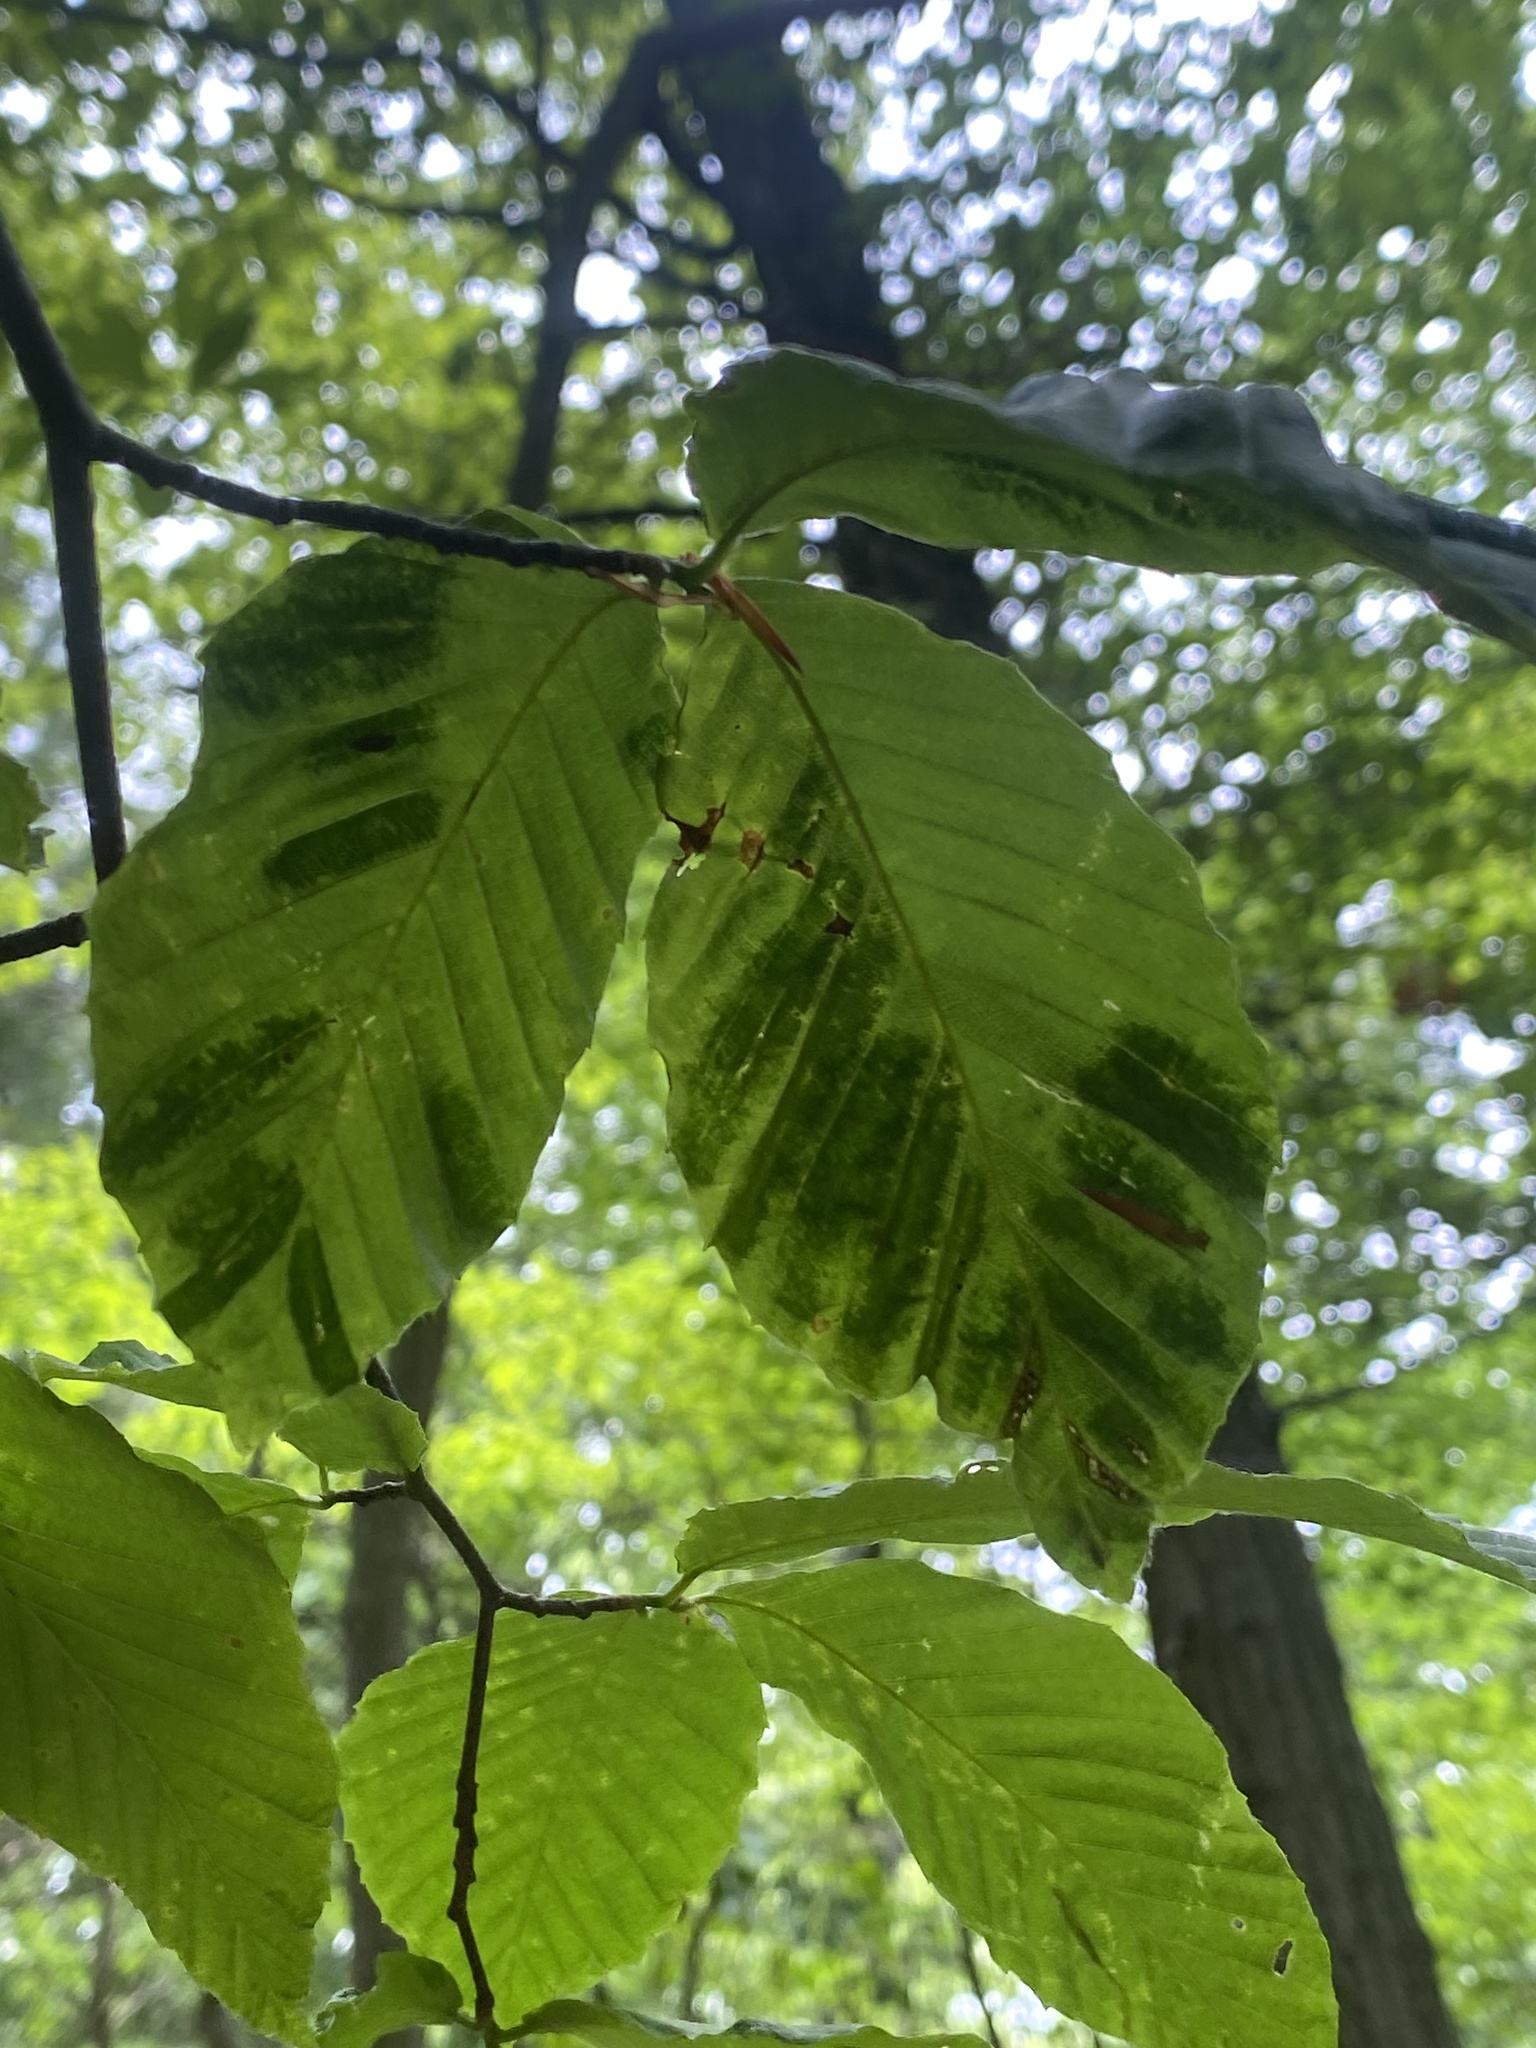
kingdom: Animalia
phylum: Nematoda
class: Chromadorea
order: Rhabditida
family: Anguinidae
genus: Litylenchus
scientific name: Litylenchus crenatae
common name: Beech leaf disease
